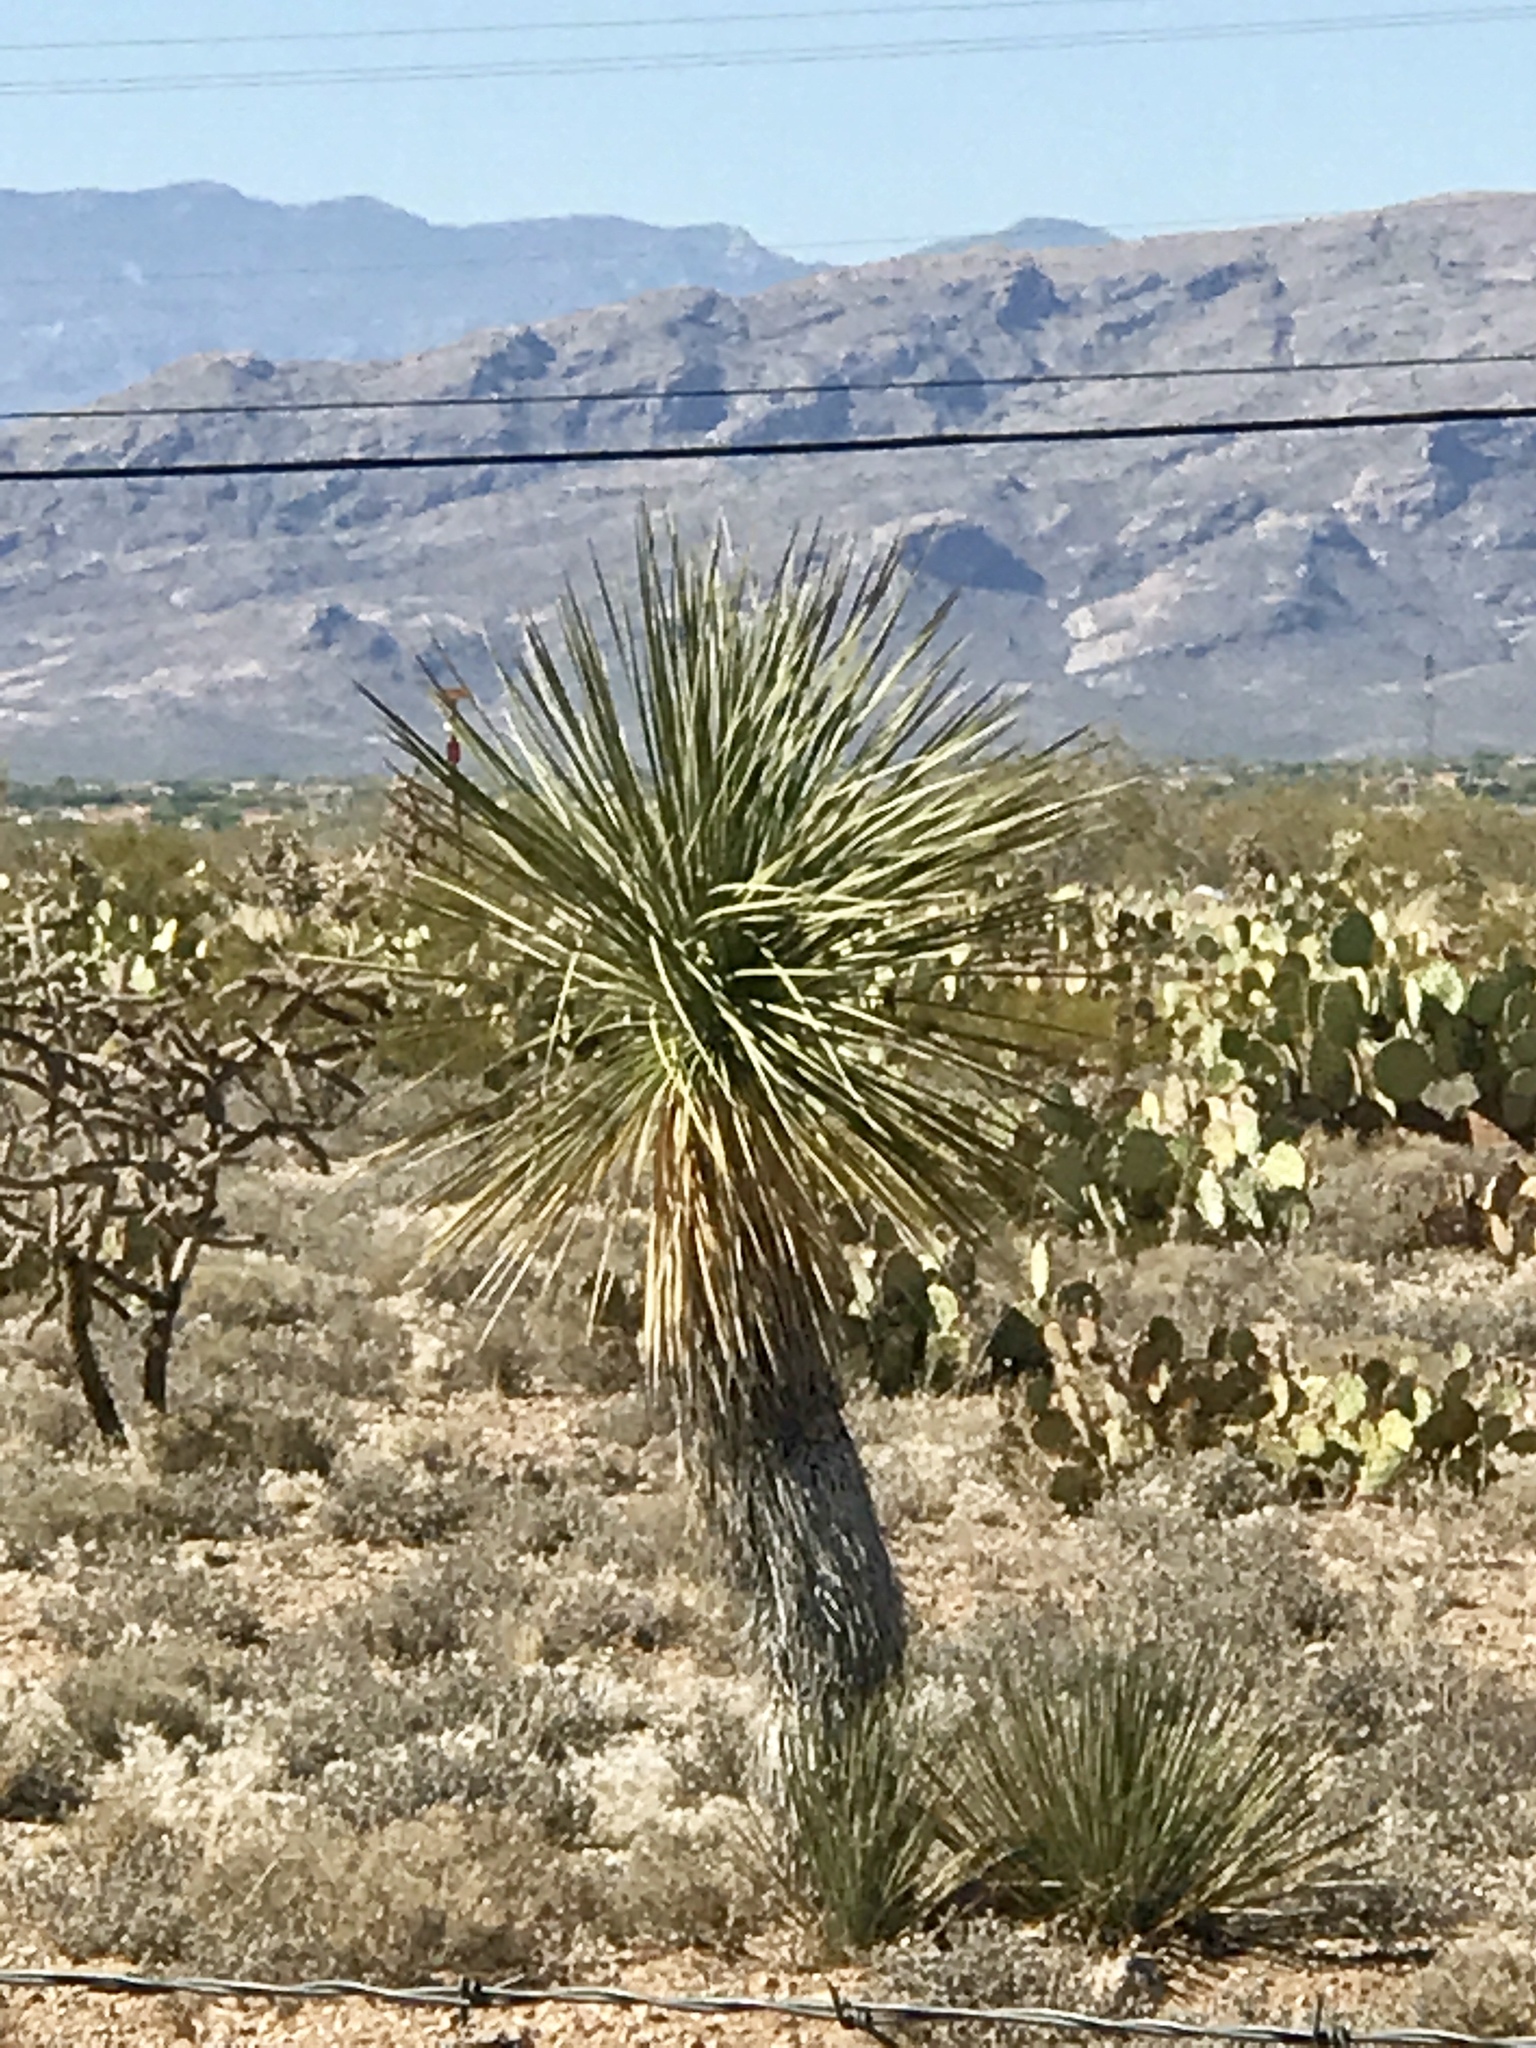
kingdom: Plantae
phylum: Tracheophyta
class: Liliopsida
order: Asparagales
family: Asparagaceae
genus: Yucca
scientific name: Yucca elata
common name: Palmella
